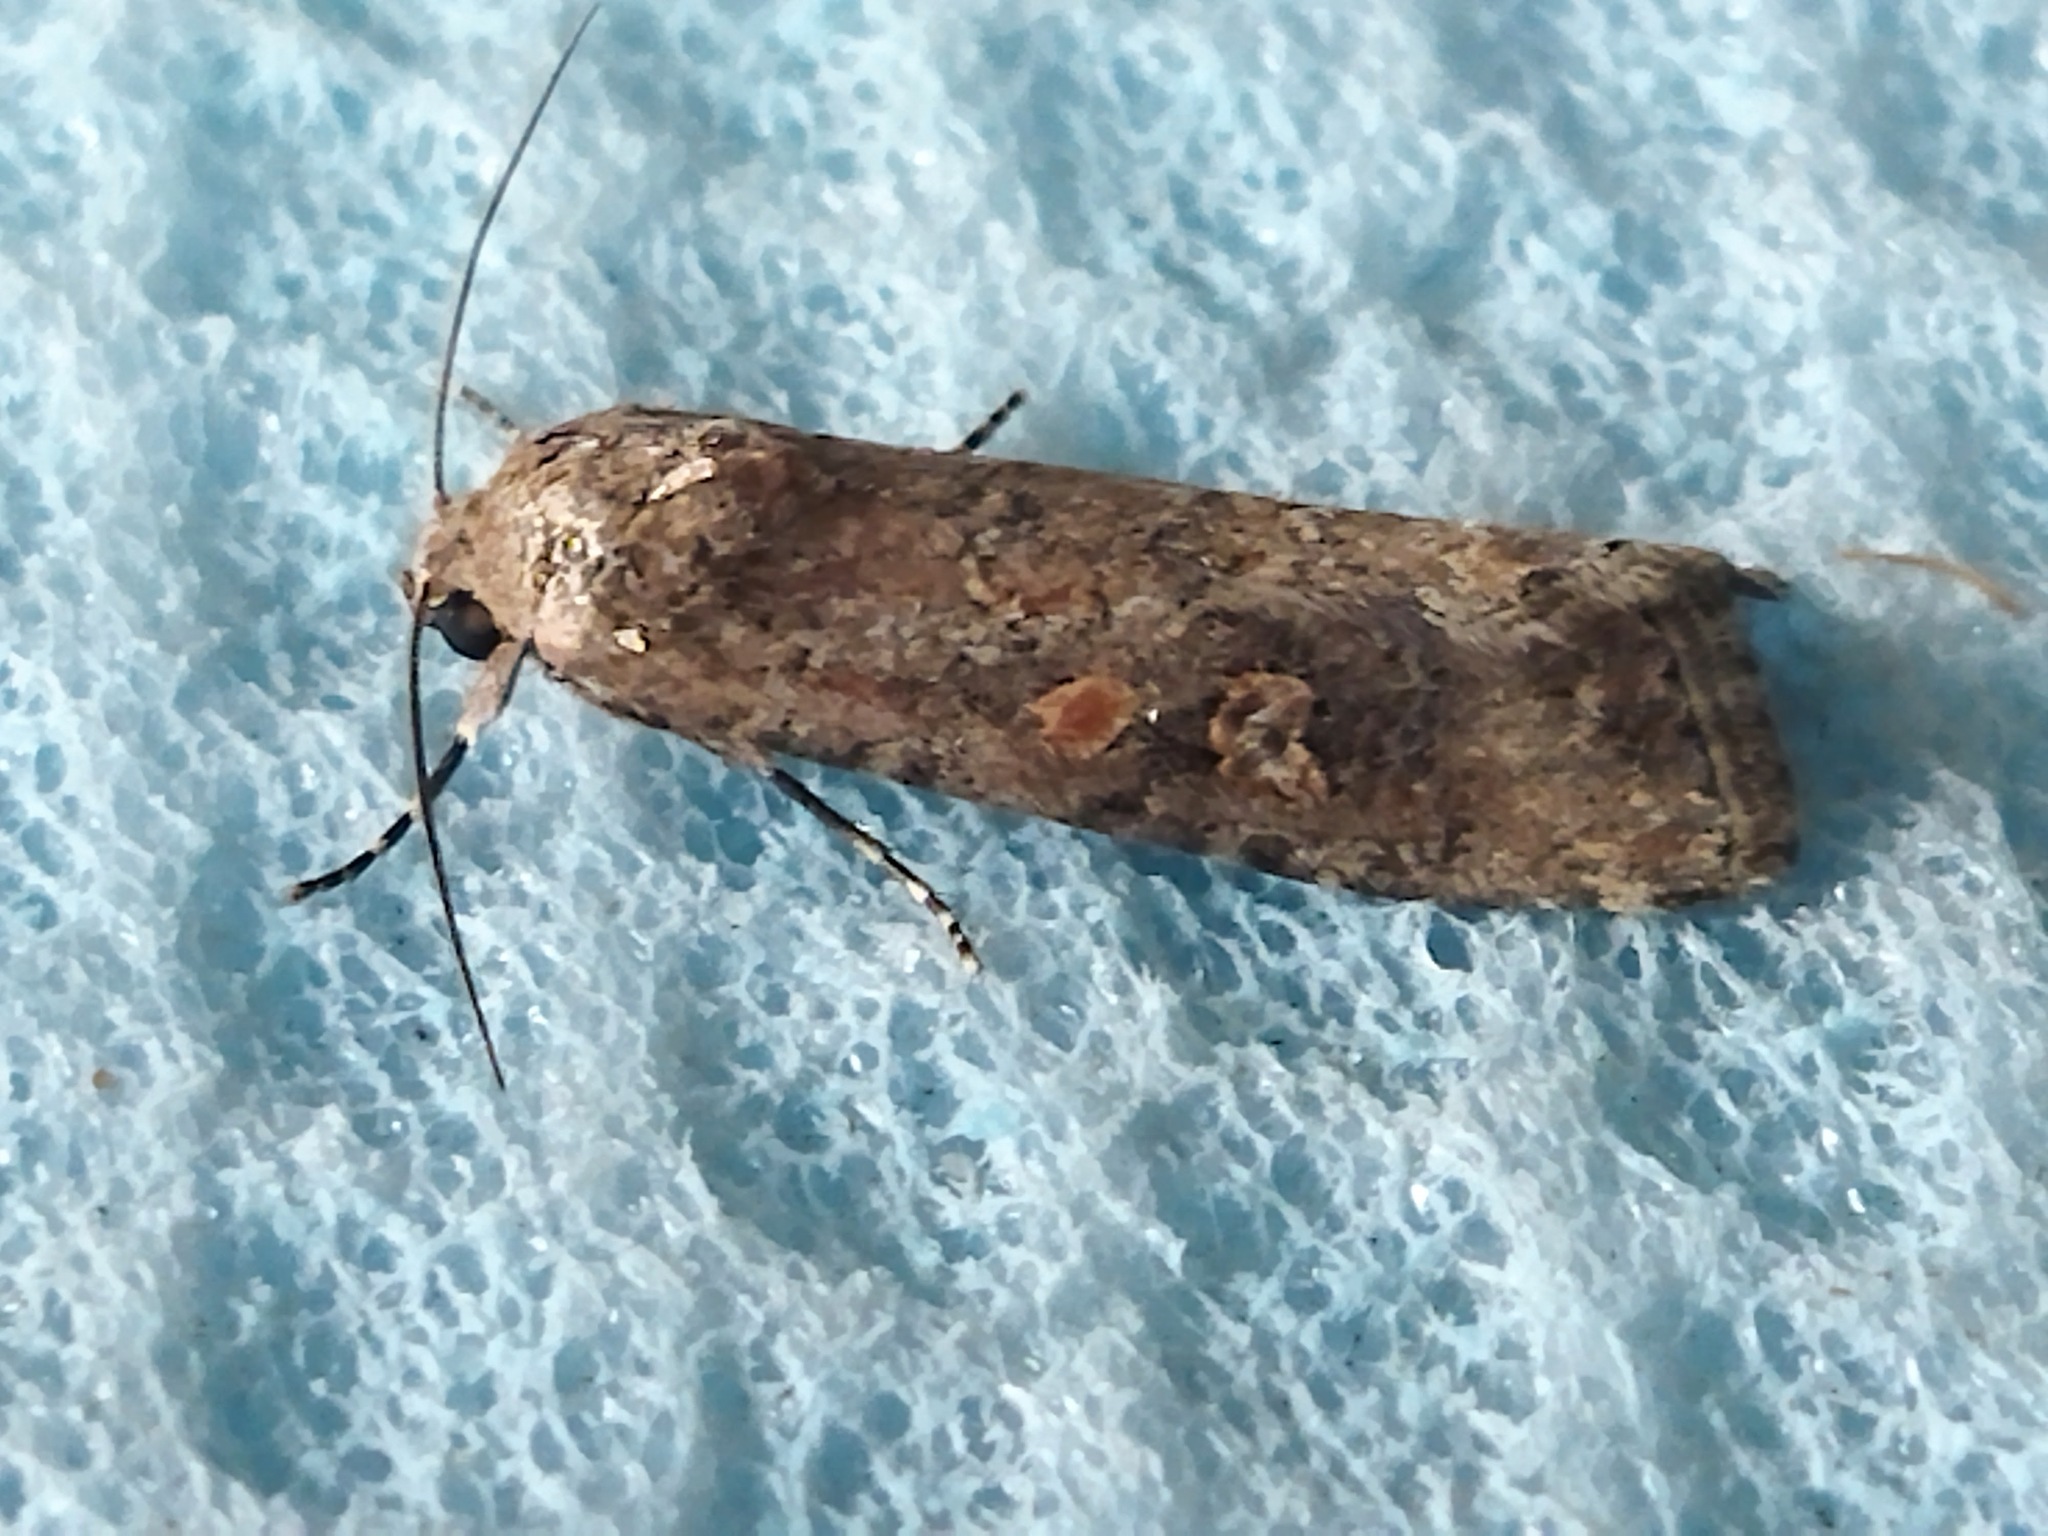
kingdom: Animalia
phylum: Arthropoda
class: Insecta
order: Lepidoptera
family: Noctuidae
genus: Spodoptera
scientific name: Spodoptera exigua
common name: Beet armyworm
